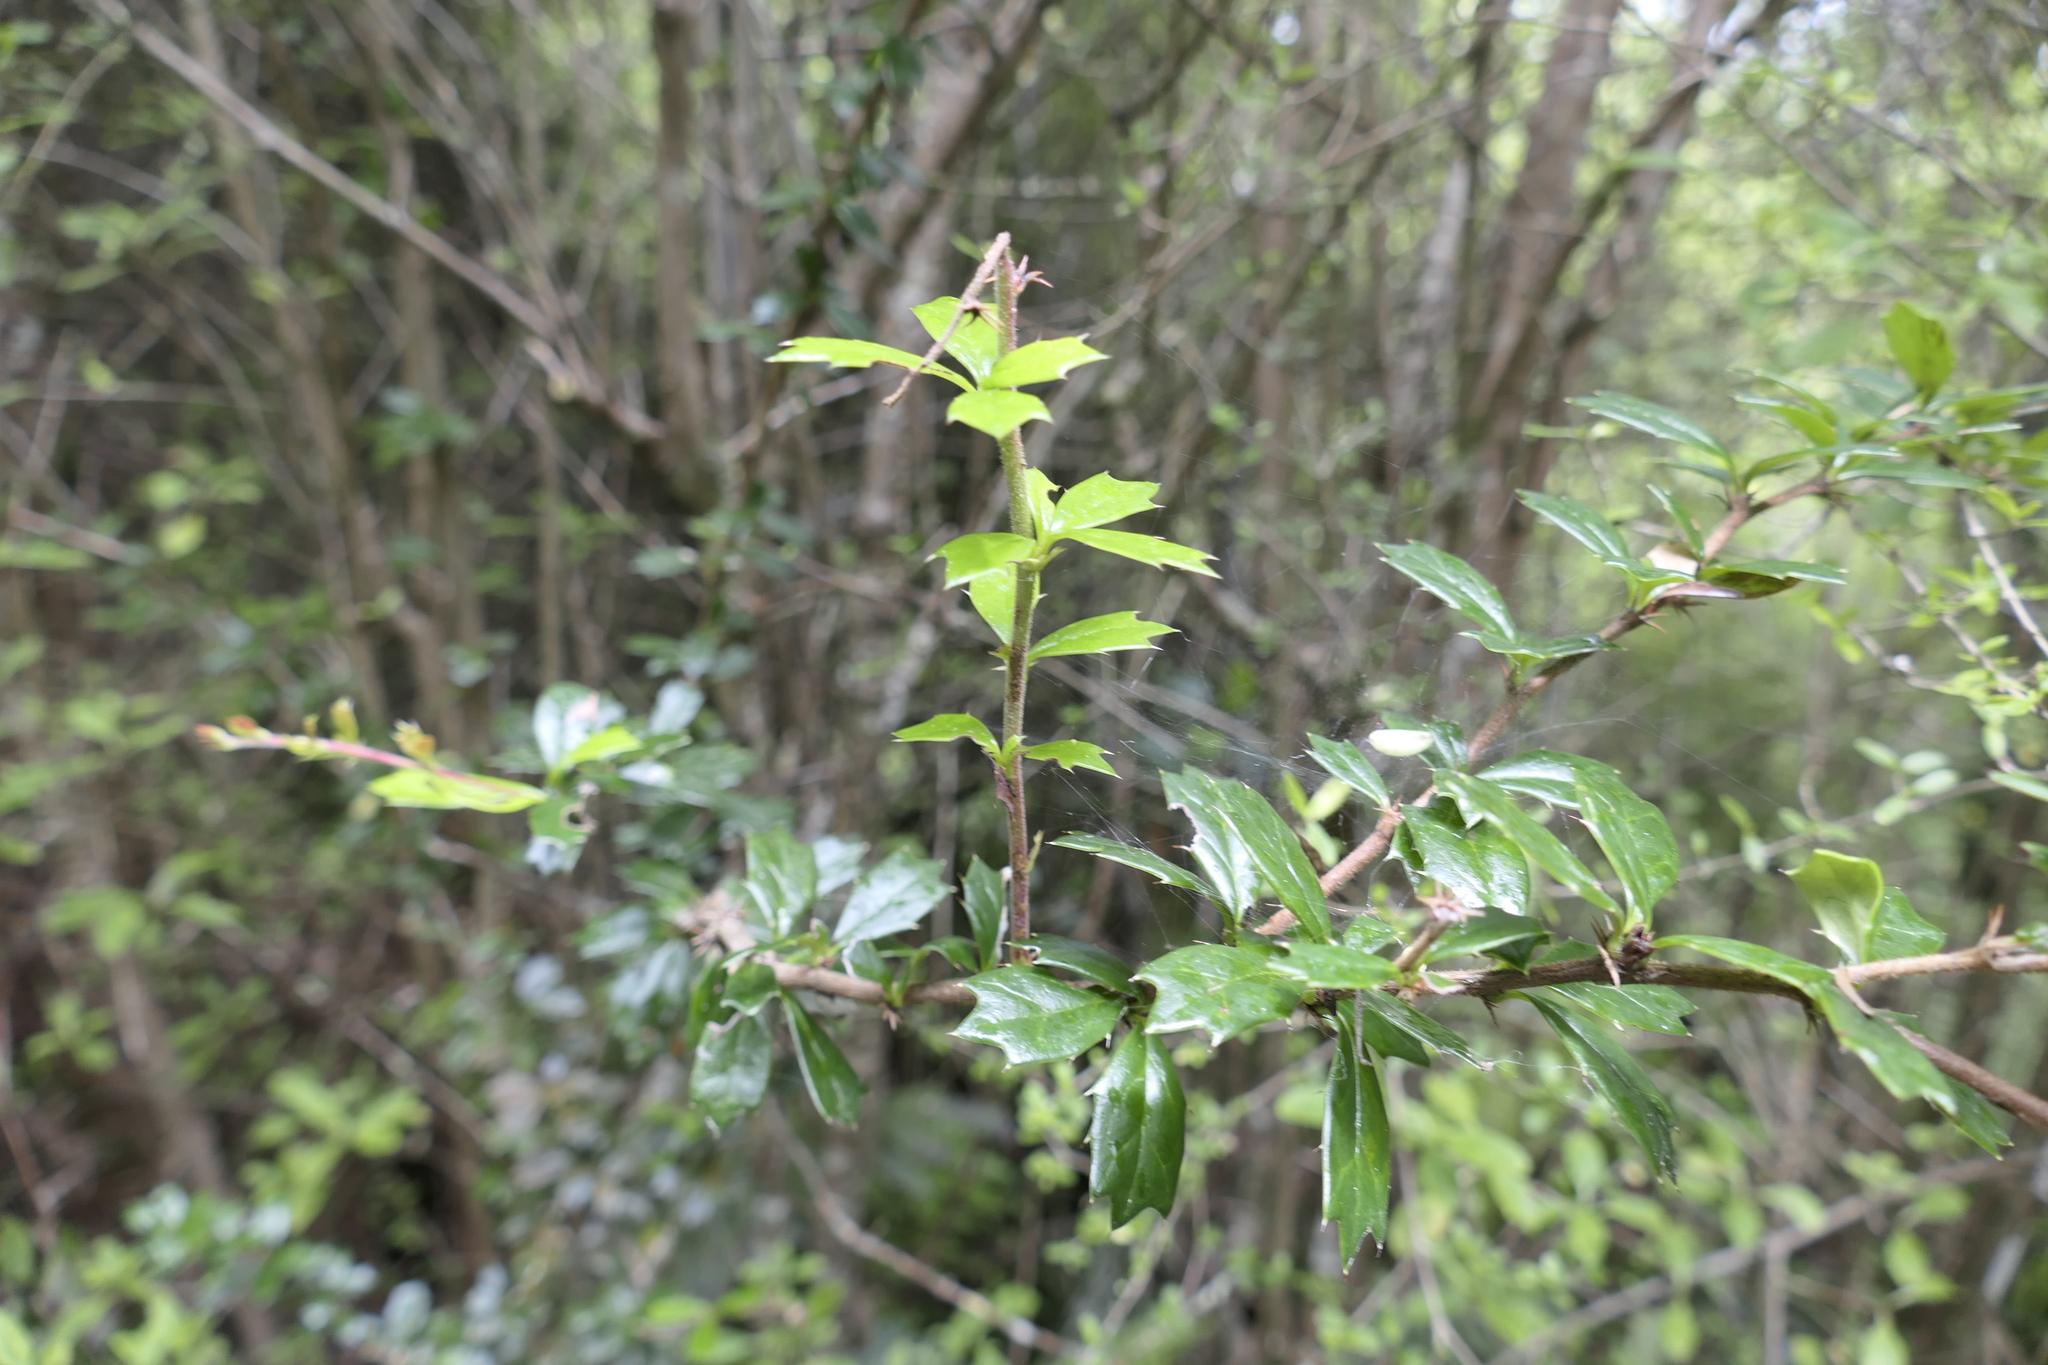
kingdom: Plantae
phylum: Tracheophyta
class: Magnoliopsida
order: Ranunculales
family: Berberidaceae
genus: Berberis
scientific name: Berberis darwinii
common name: Darwin's barberry
